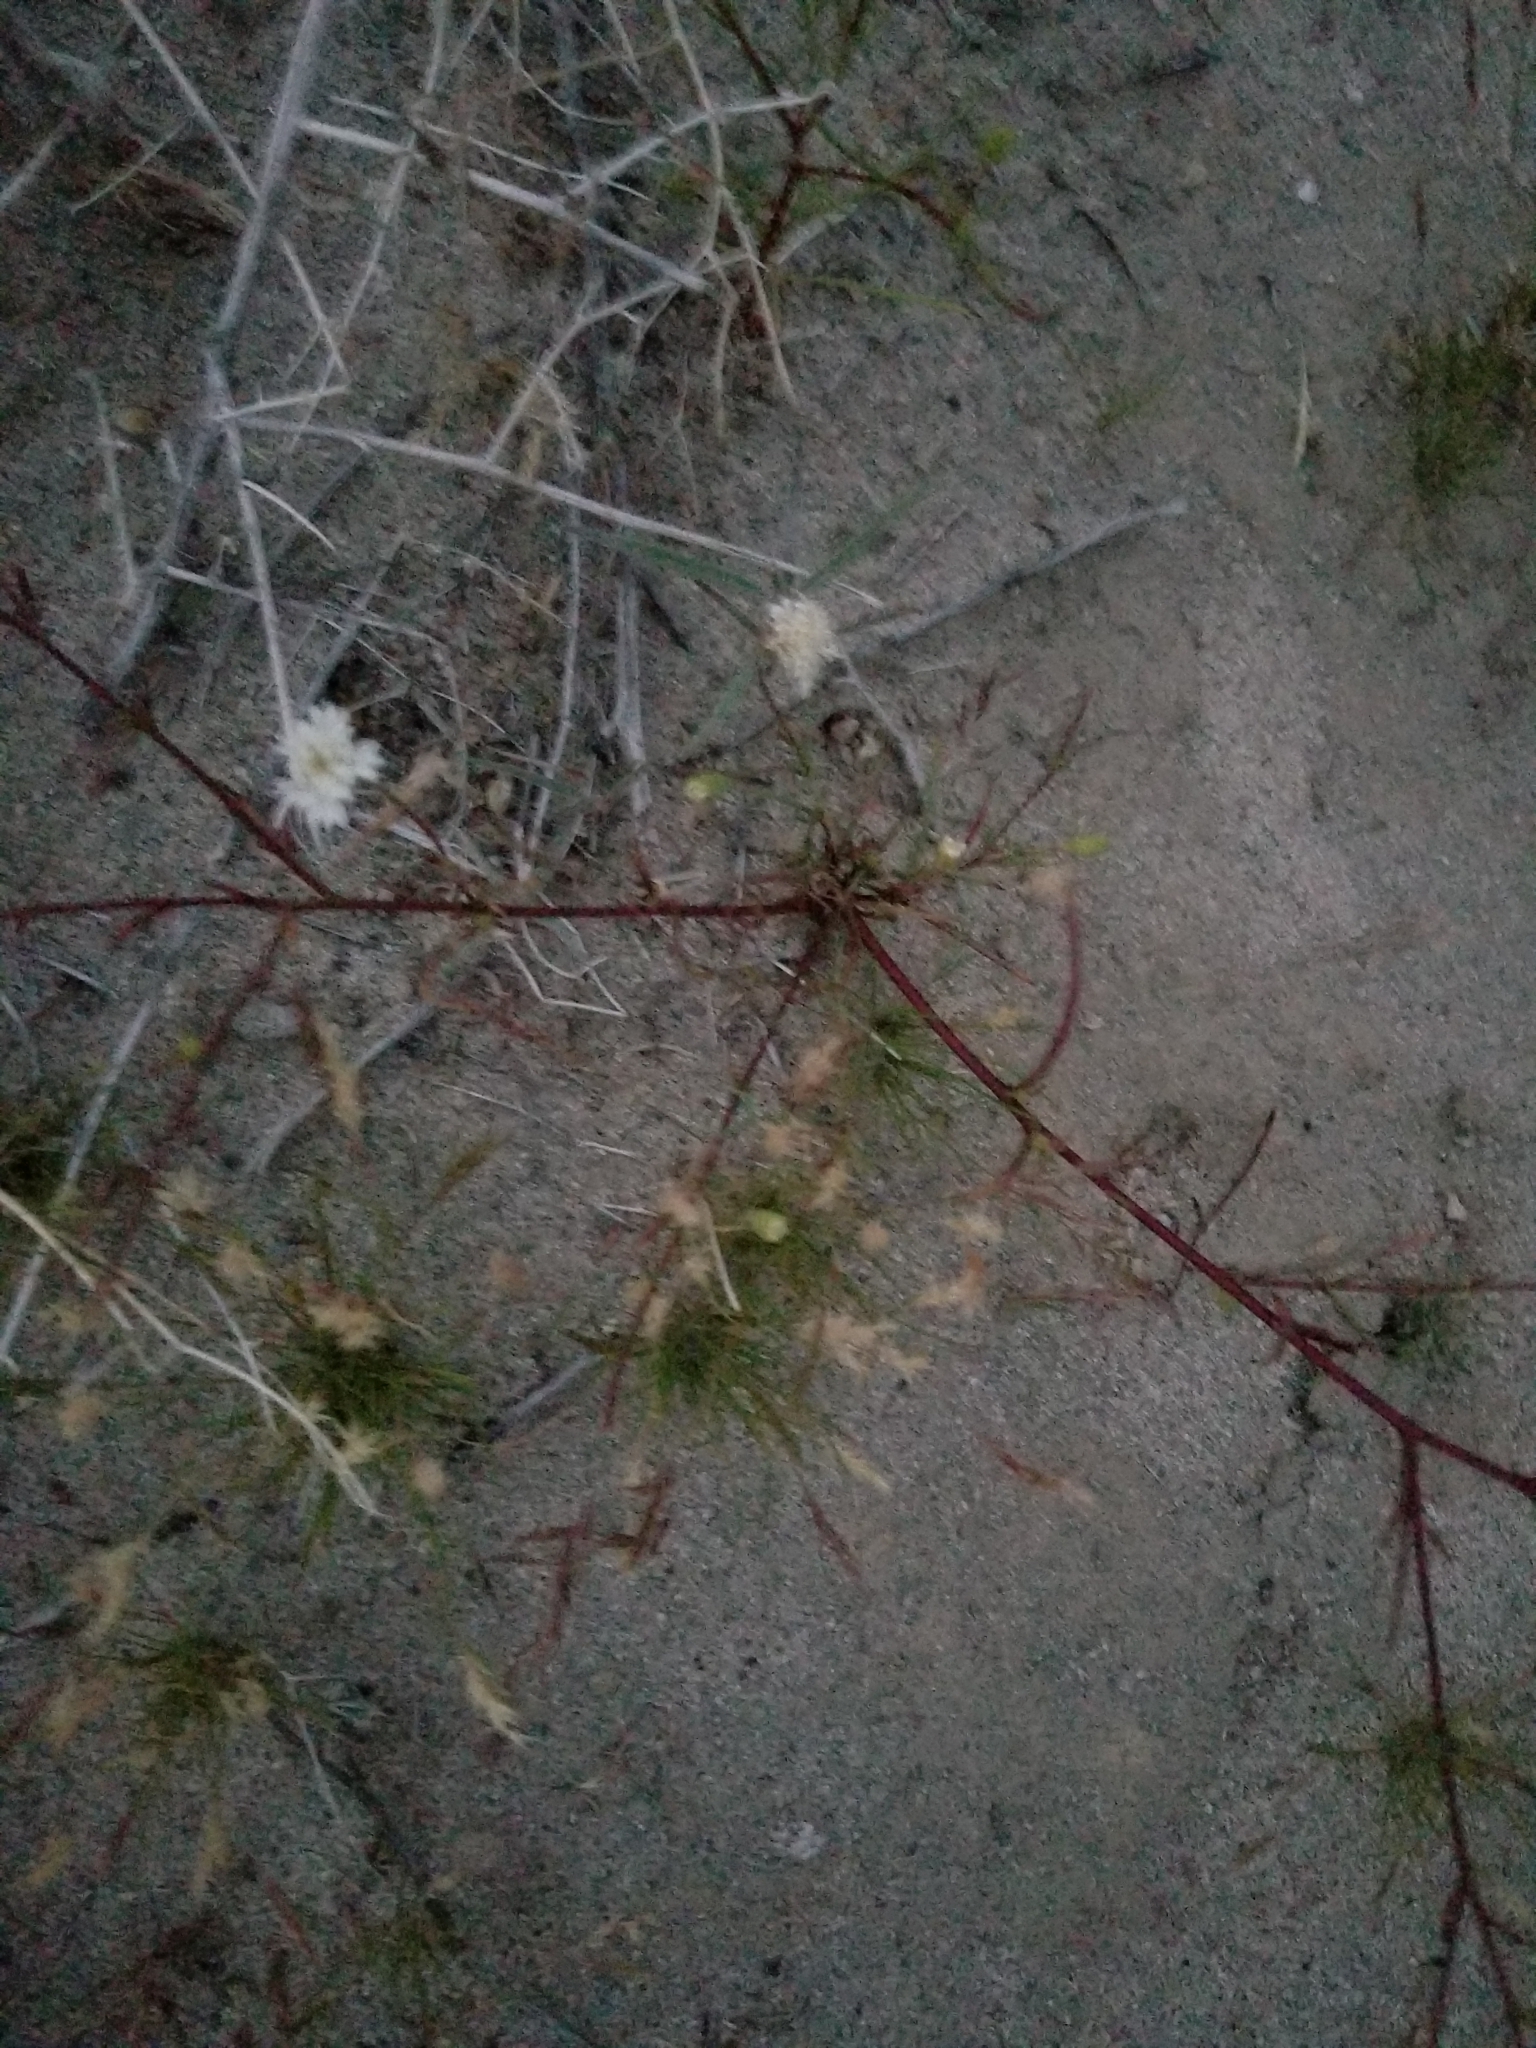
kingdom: Plantae
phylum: Tracheophyta
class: Magnoliopsida
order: Asterales
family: Asteraceae
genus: Chaenactis
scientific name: Chaenactis fremontii
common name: Fremont pincushion
